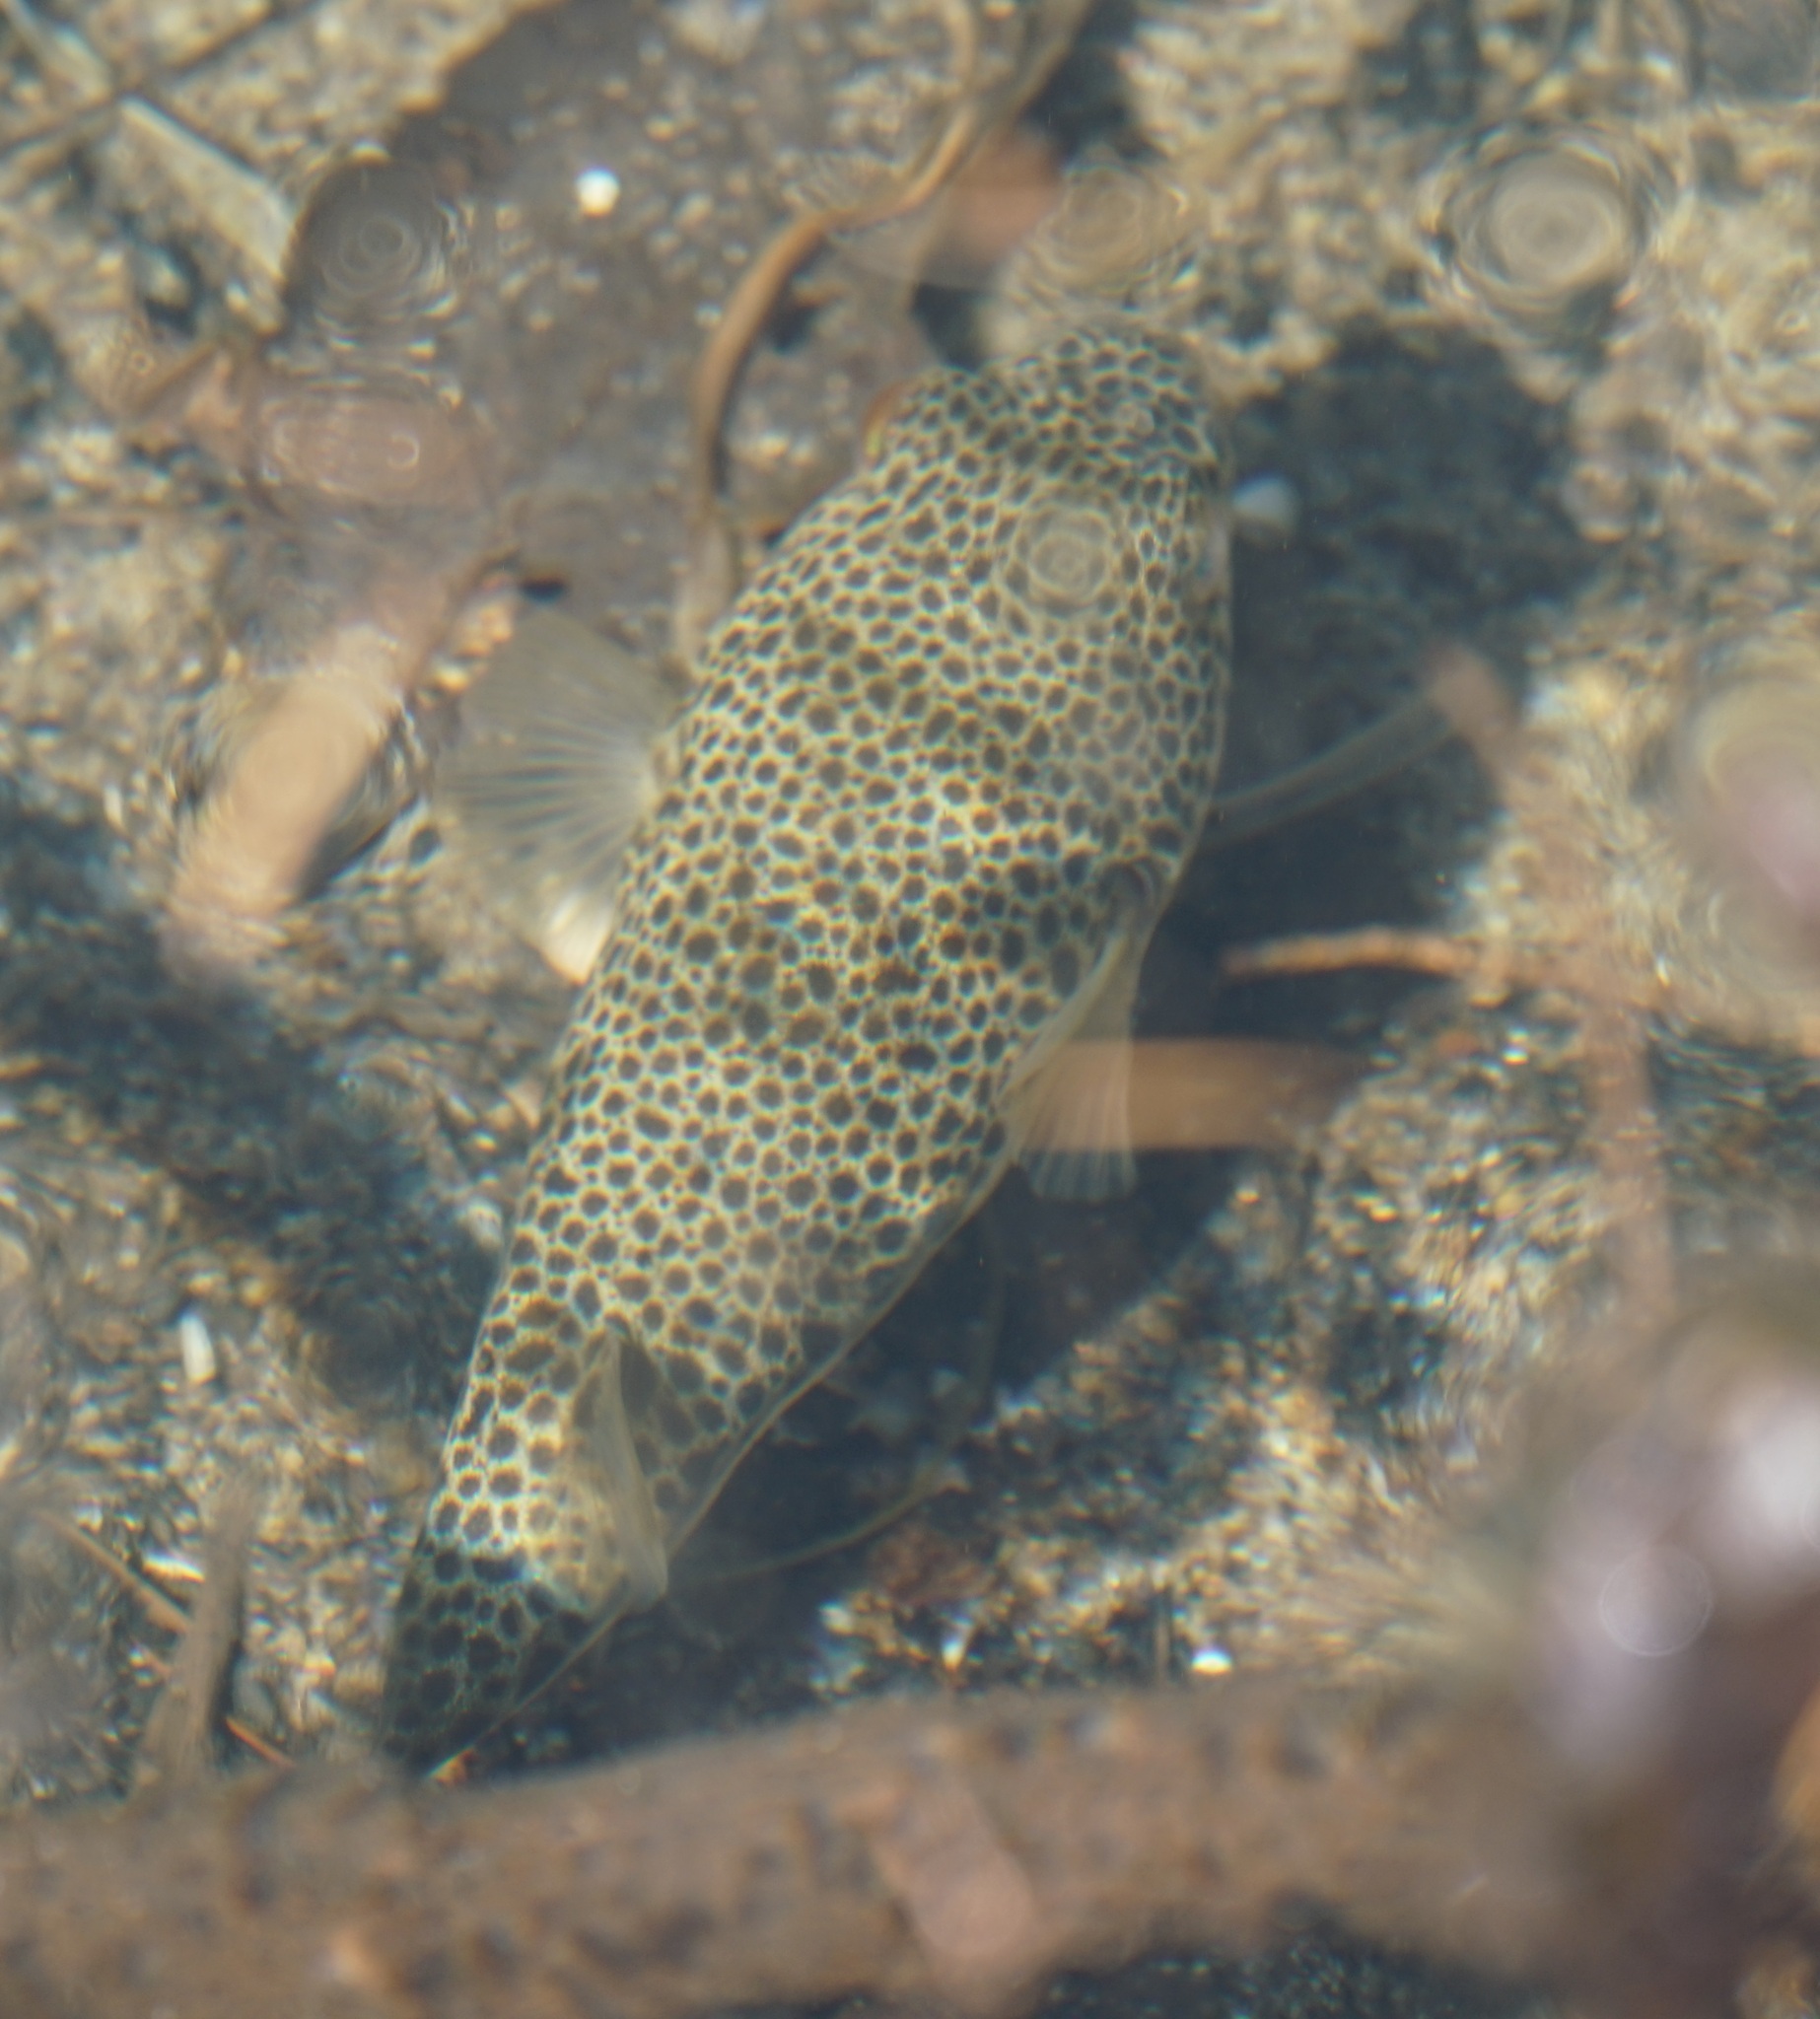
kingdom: Animalia
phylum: Chordata
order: Tetraodontiformes
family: Tetraodontidae
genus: Tetractenos
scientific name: Tetractenos hamiltoni
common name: Common toadfish
